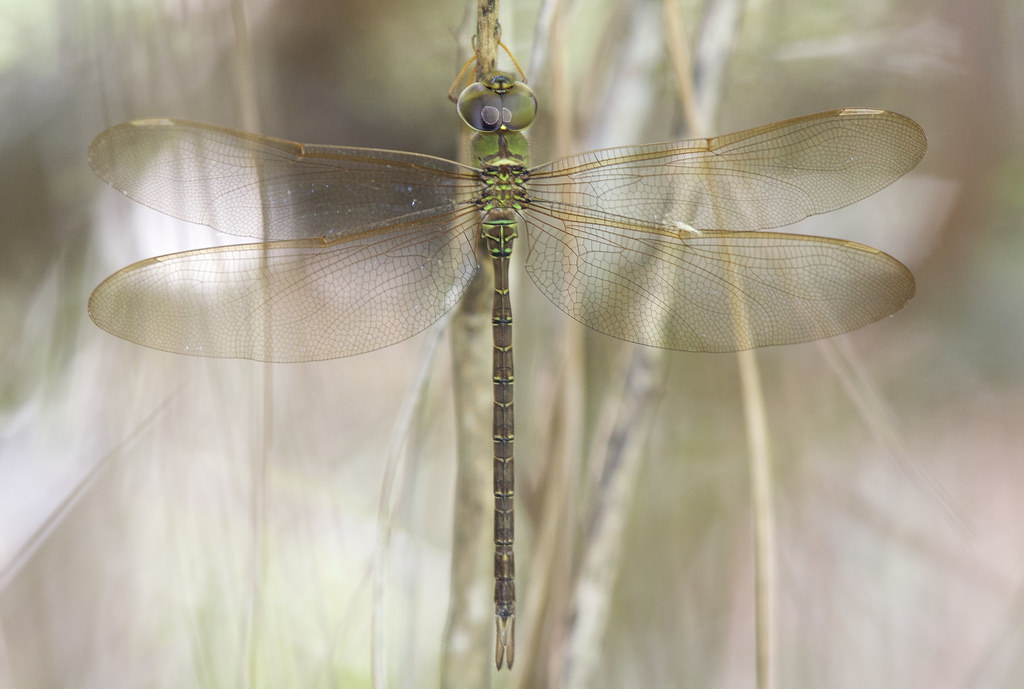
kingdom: Animalia
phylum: Arthropoda
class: Insecta
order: Odonata
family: Aeshnidae
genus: Gynacantha
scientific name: Gynacantha nervosa
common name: Twilight darner
